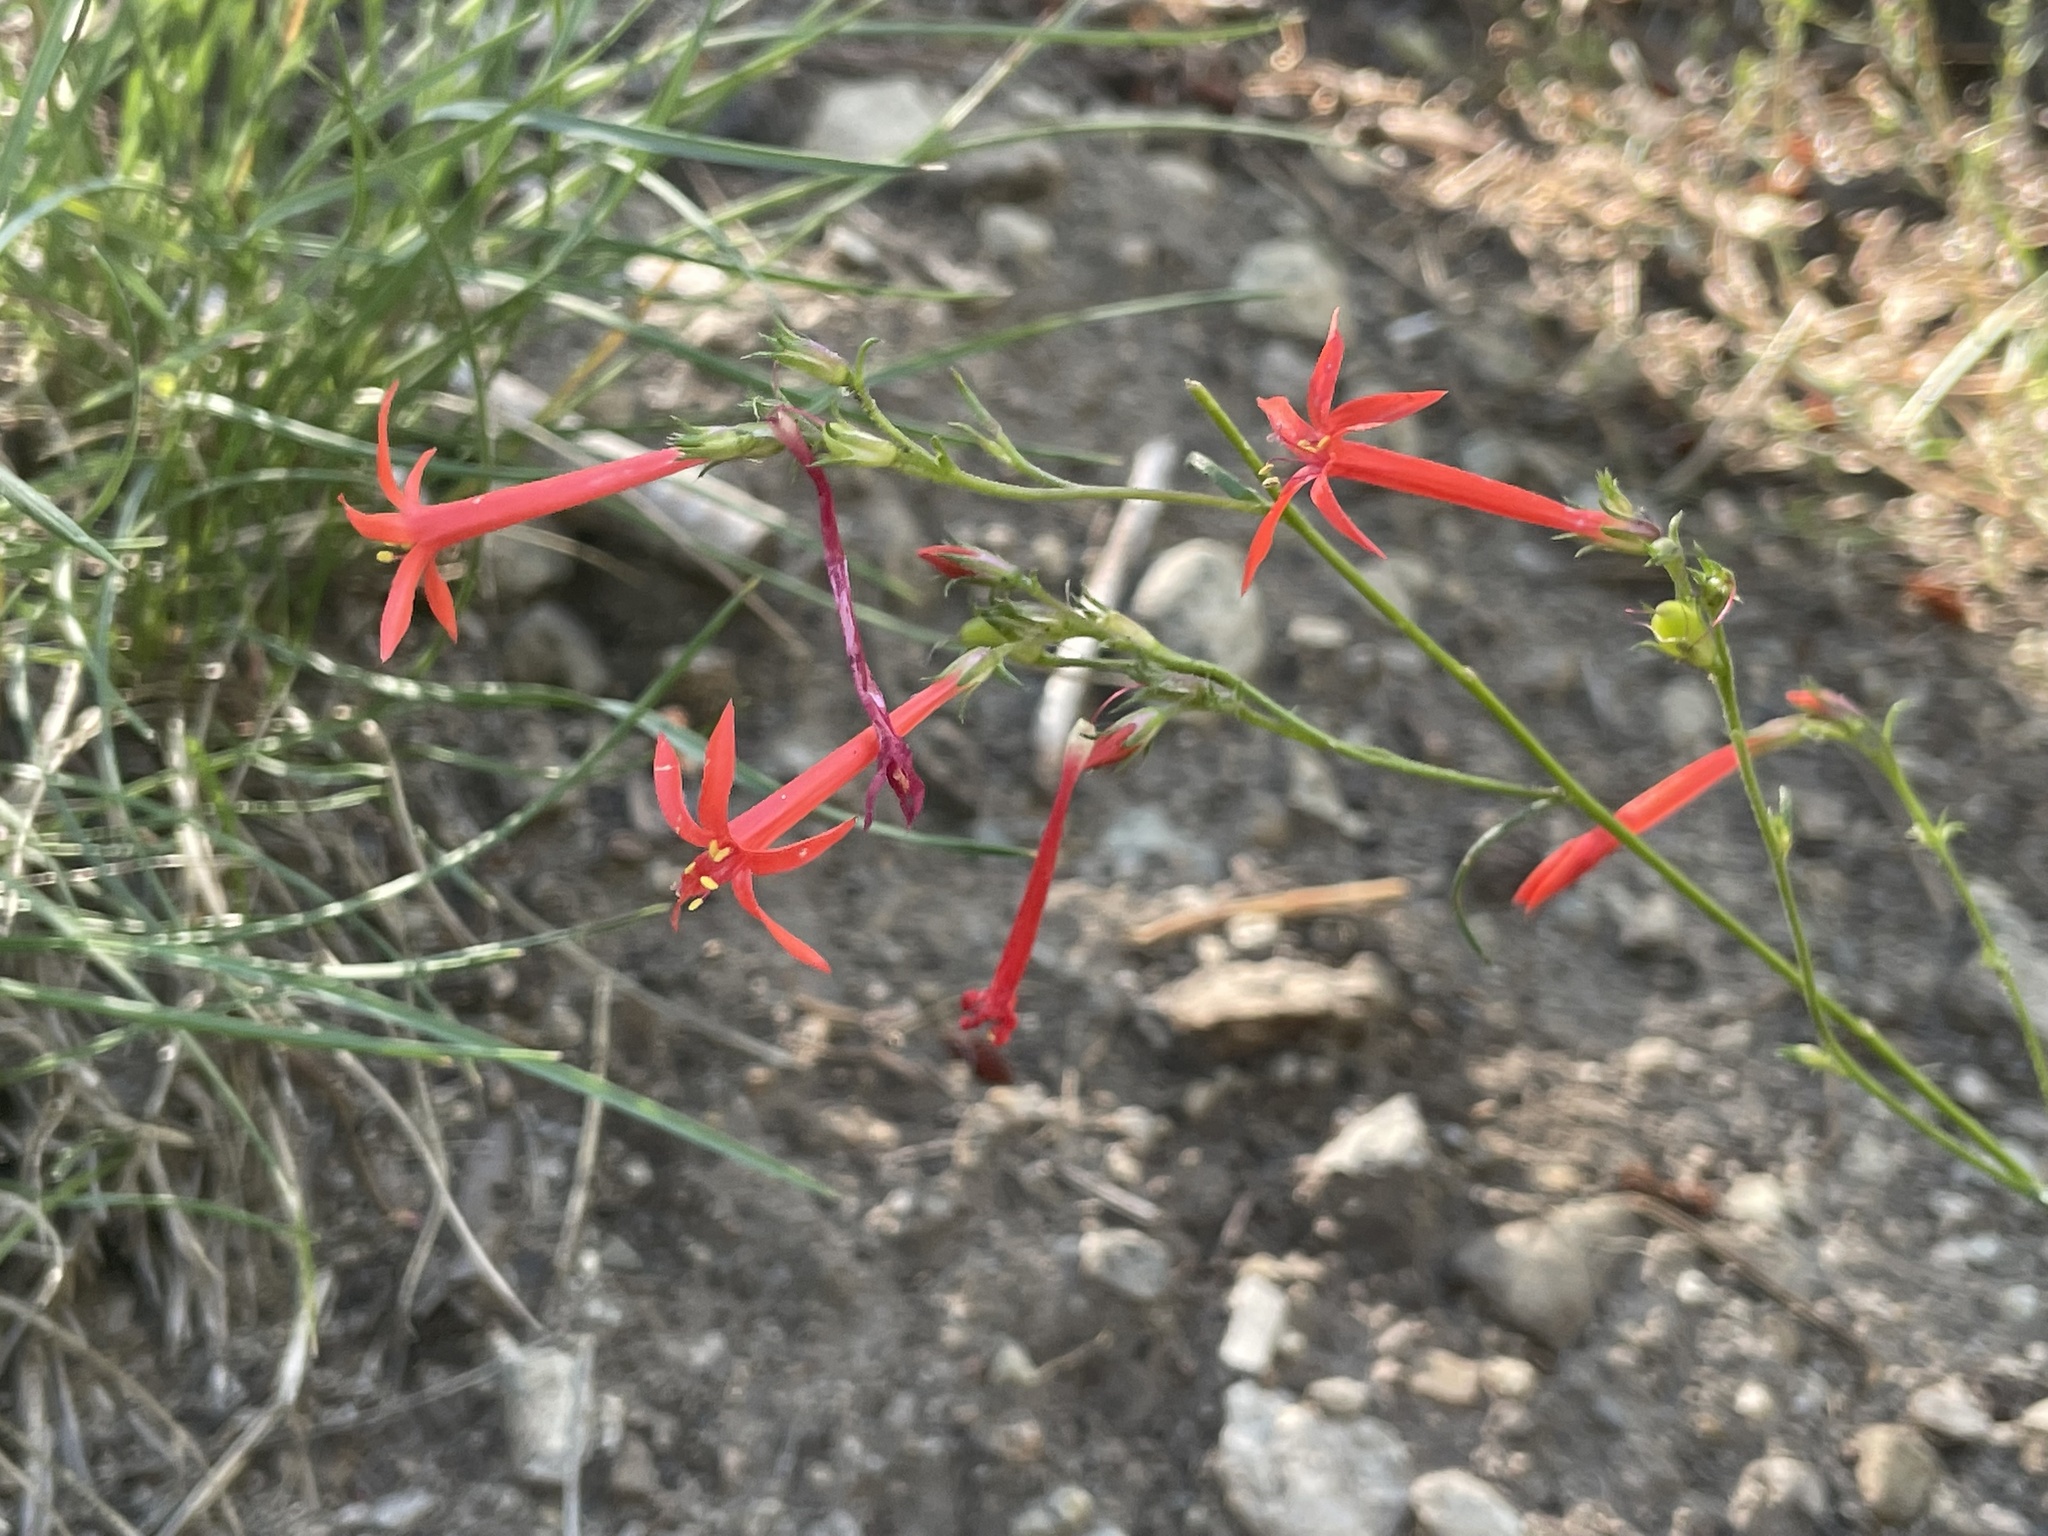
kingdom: Plantae
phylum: Tracheophyta
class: Magnoliopsida
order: Ericales
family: Polemoniaceae
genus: Ipomopsis
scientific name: Ipomopsis aggregata
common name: Scarlet gilia
